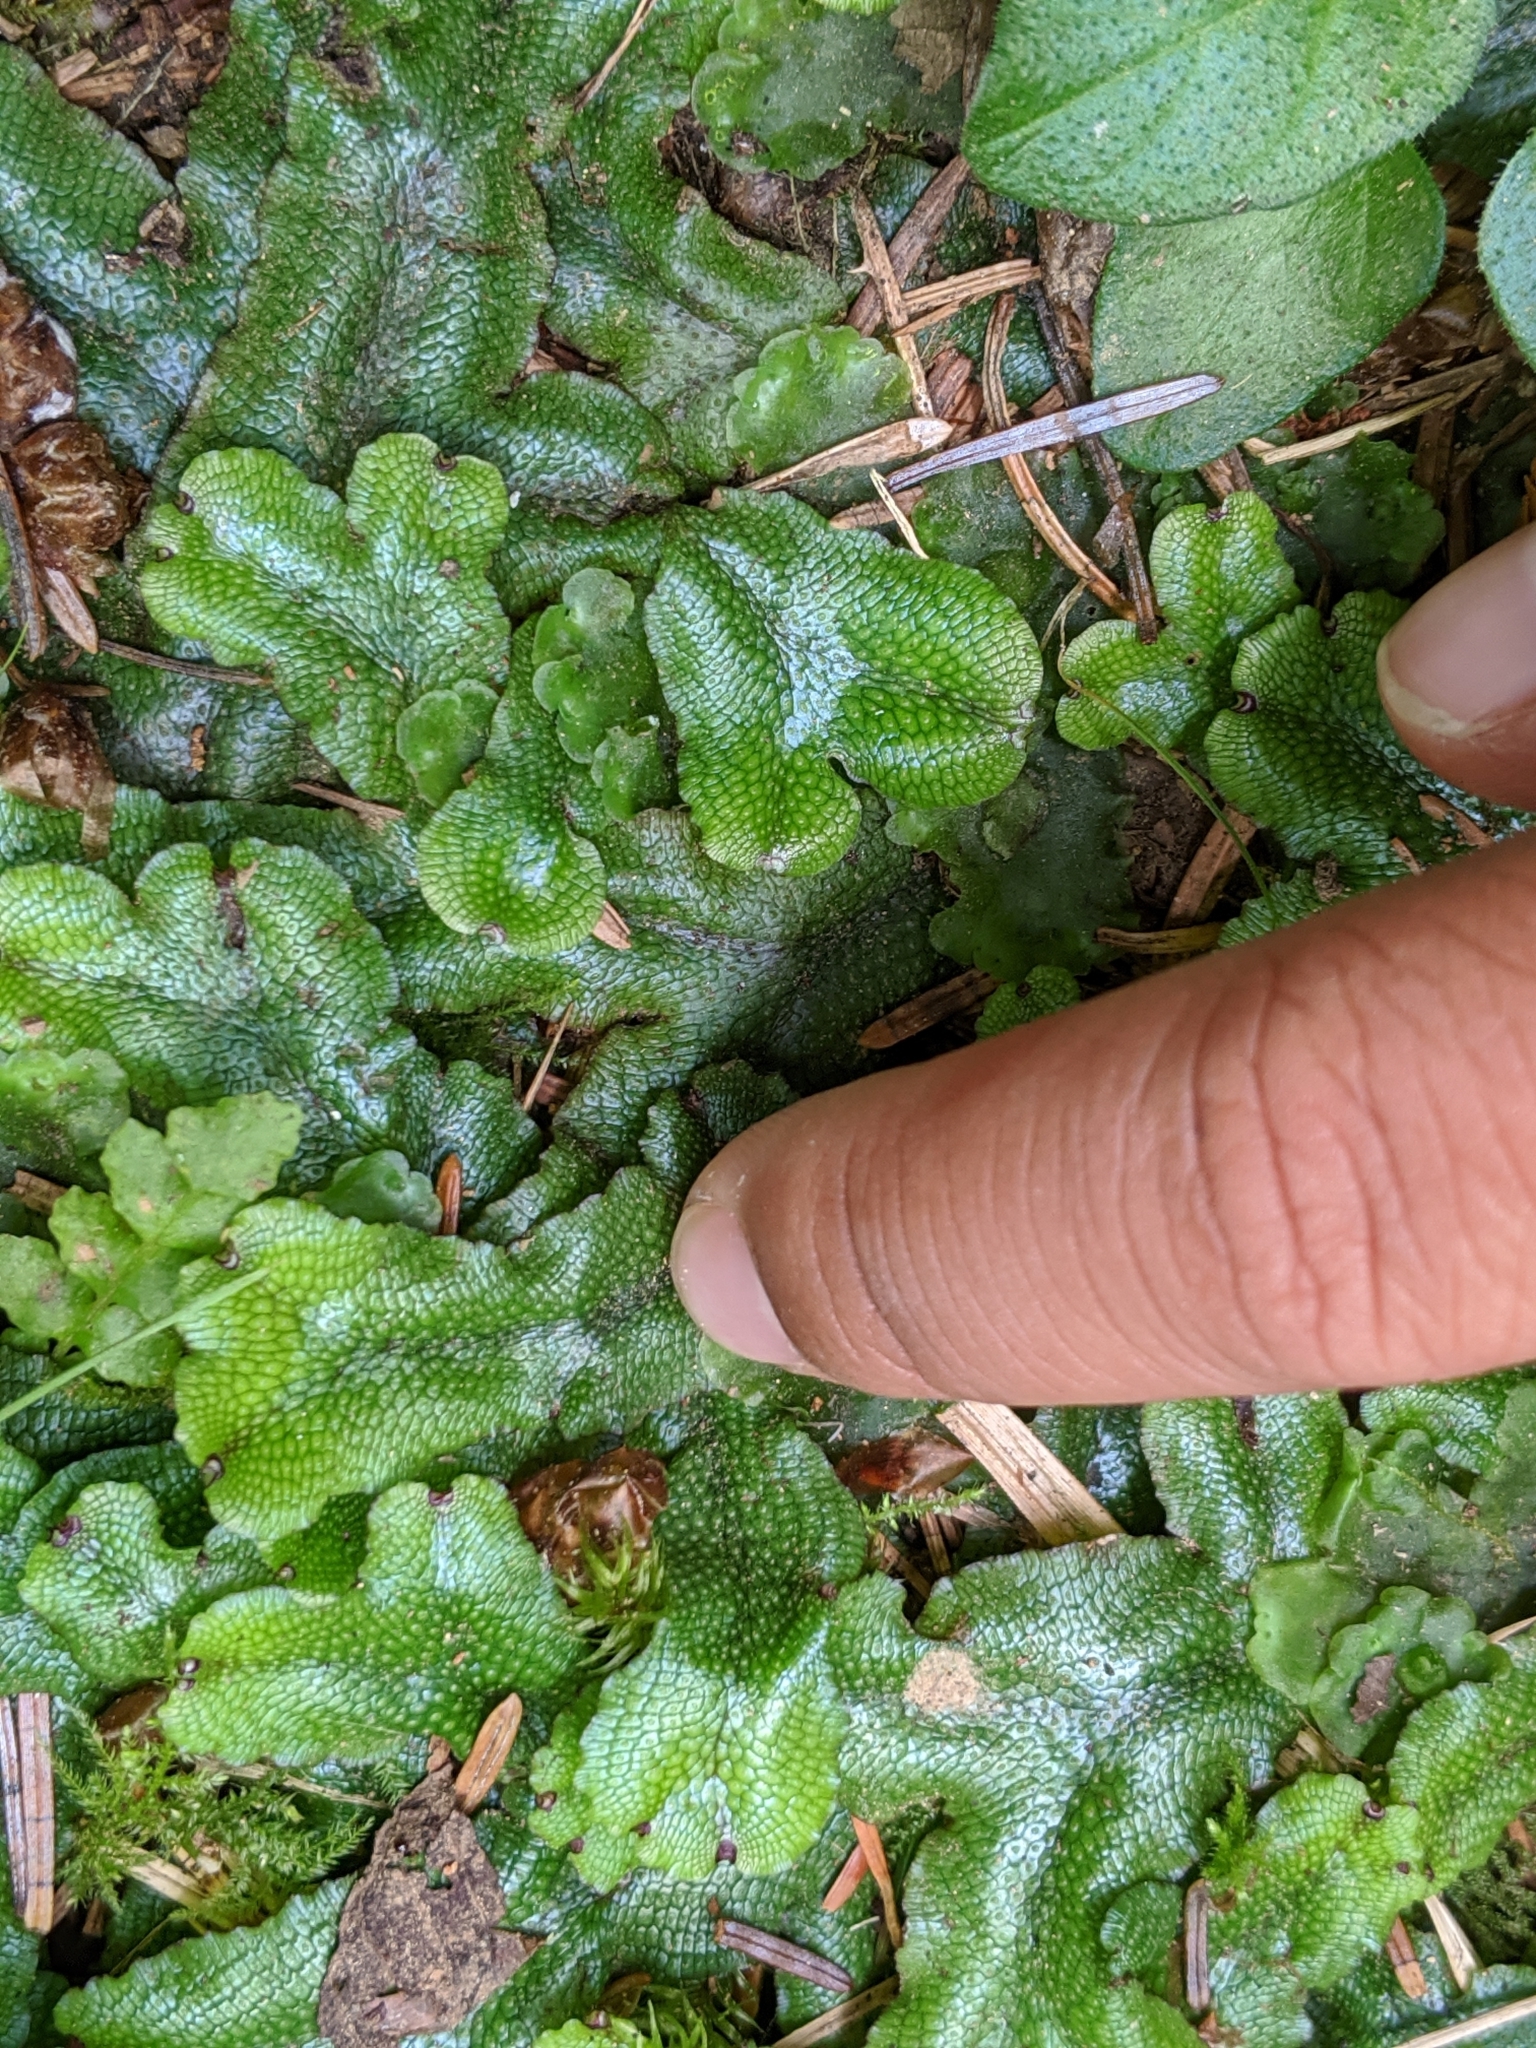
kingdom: Plantae
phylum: Marchantiophyta
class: Marchantiopsida
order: Marchantiales
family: Conocephalaceae
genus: Conocephalum
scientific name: Conocephalum salebrosum
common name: Cat-tongue liverwort
